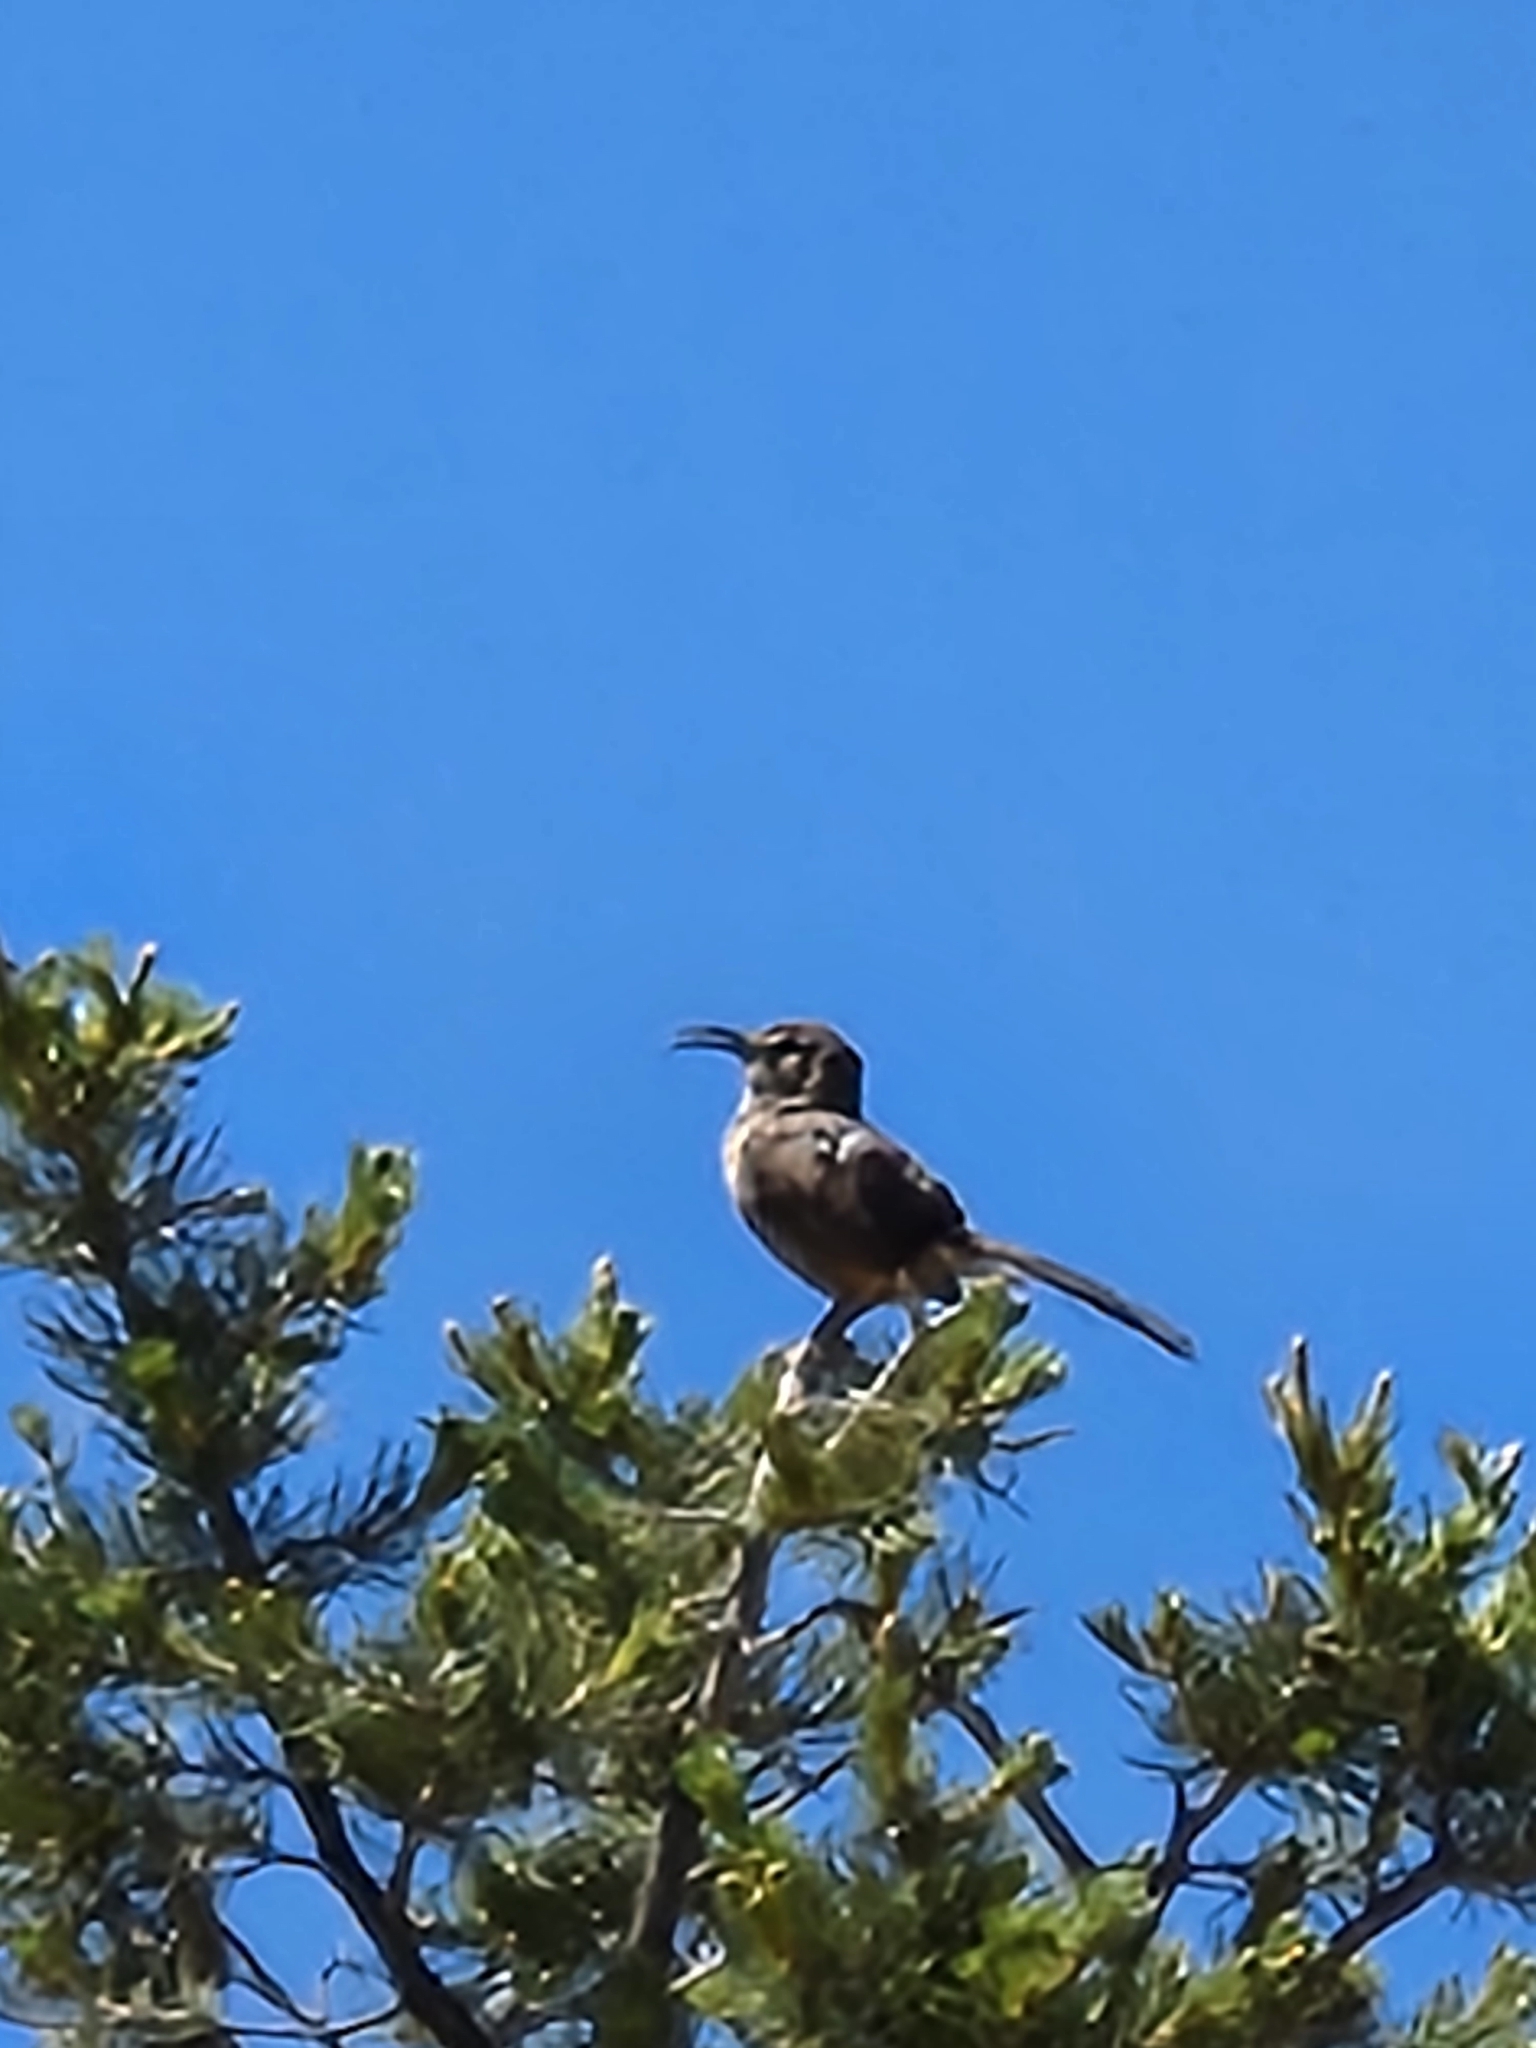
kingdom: Animalia
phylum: Chordata
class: Aves
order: Passeriformes
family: Mimidae
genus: Toxostoma
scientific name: Toxostoma redivivum
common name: California thrasher
